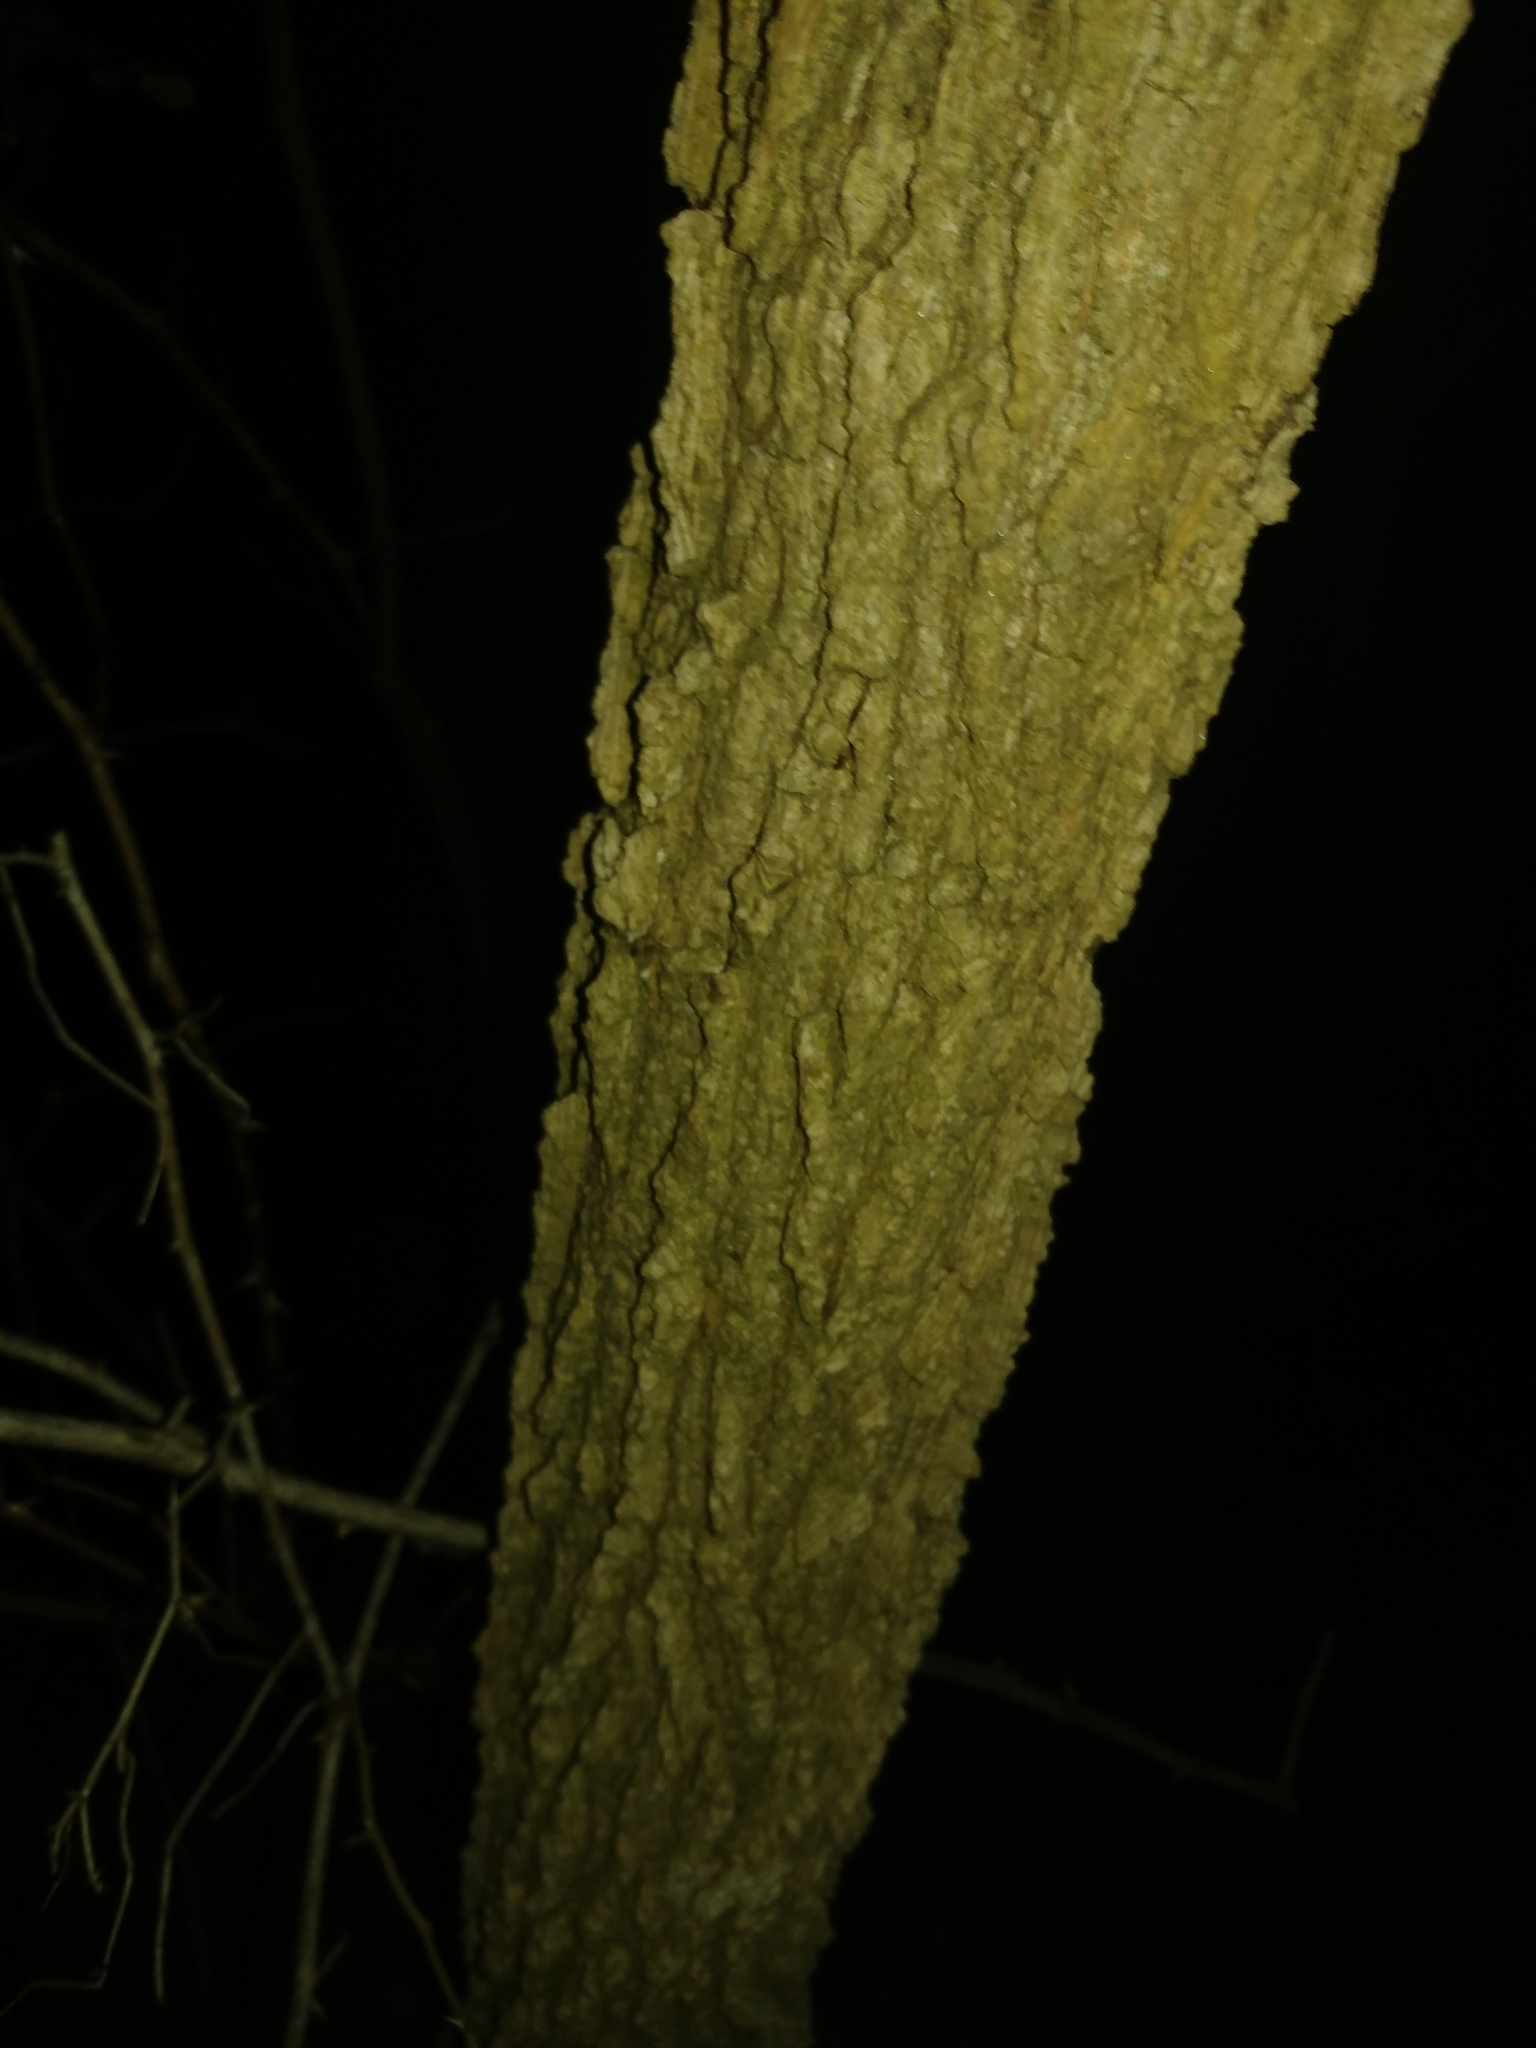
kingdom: Plantae
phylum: Tracheophyta
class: Magnoliopsida
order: Saxifragales
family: Altingiaceae
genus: Liquidambar
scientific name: Liquidambar styraciflua
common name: Sweet gum
